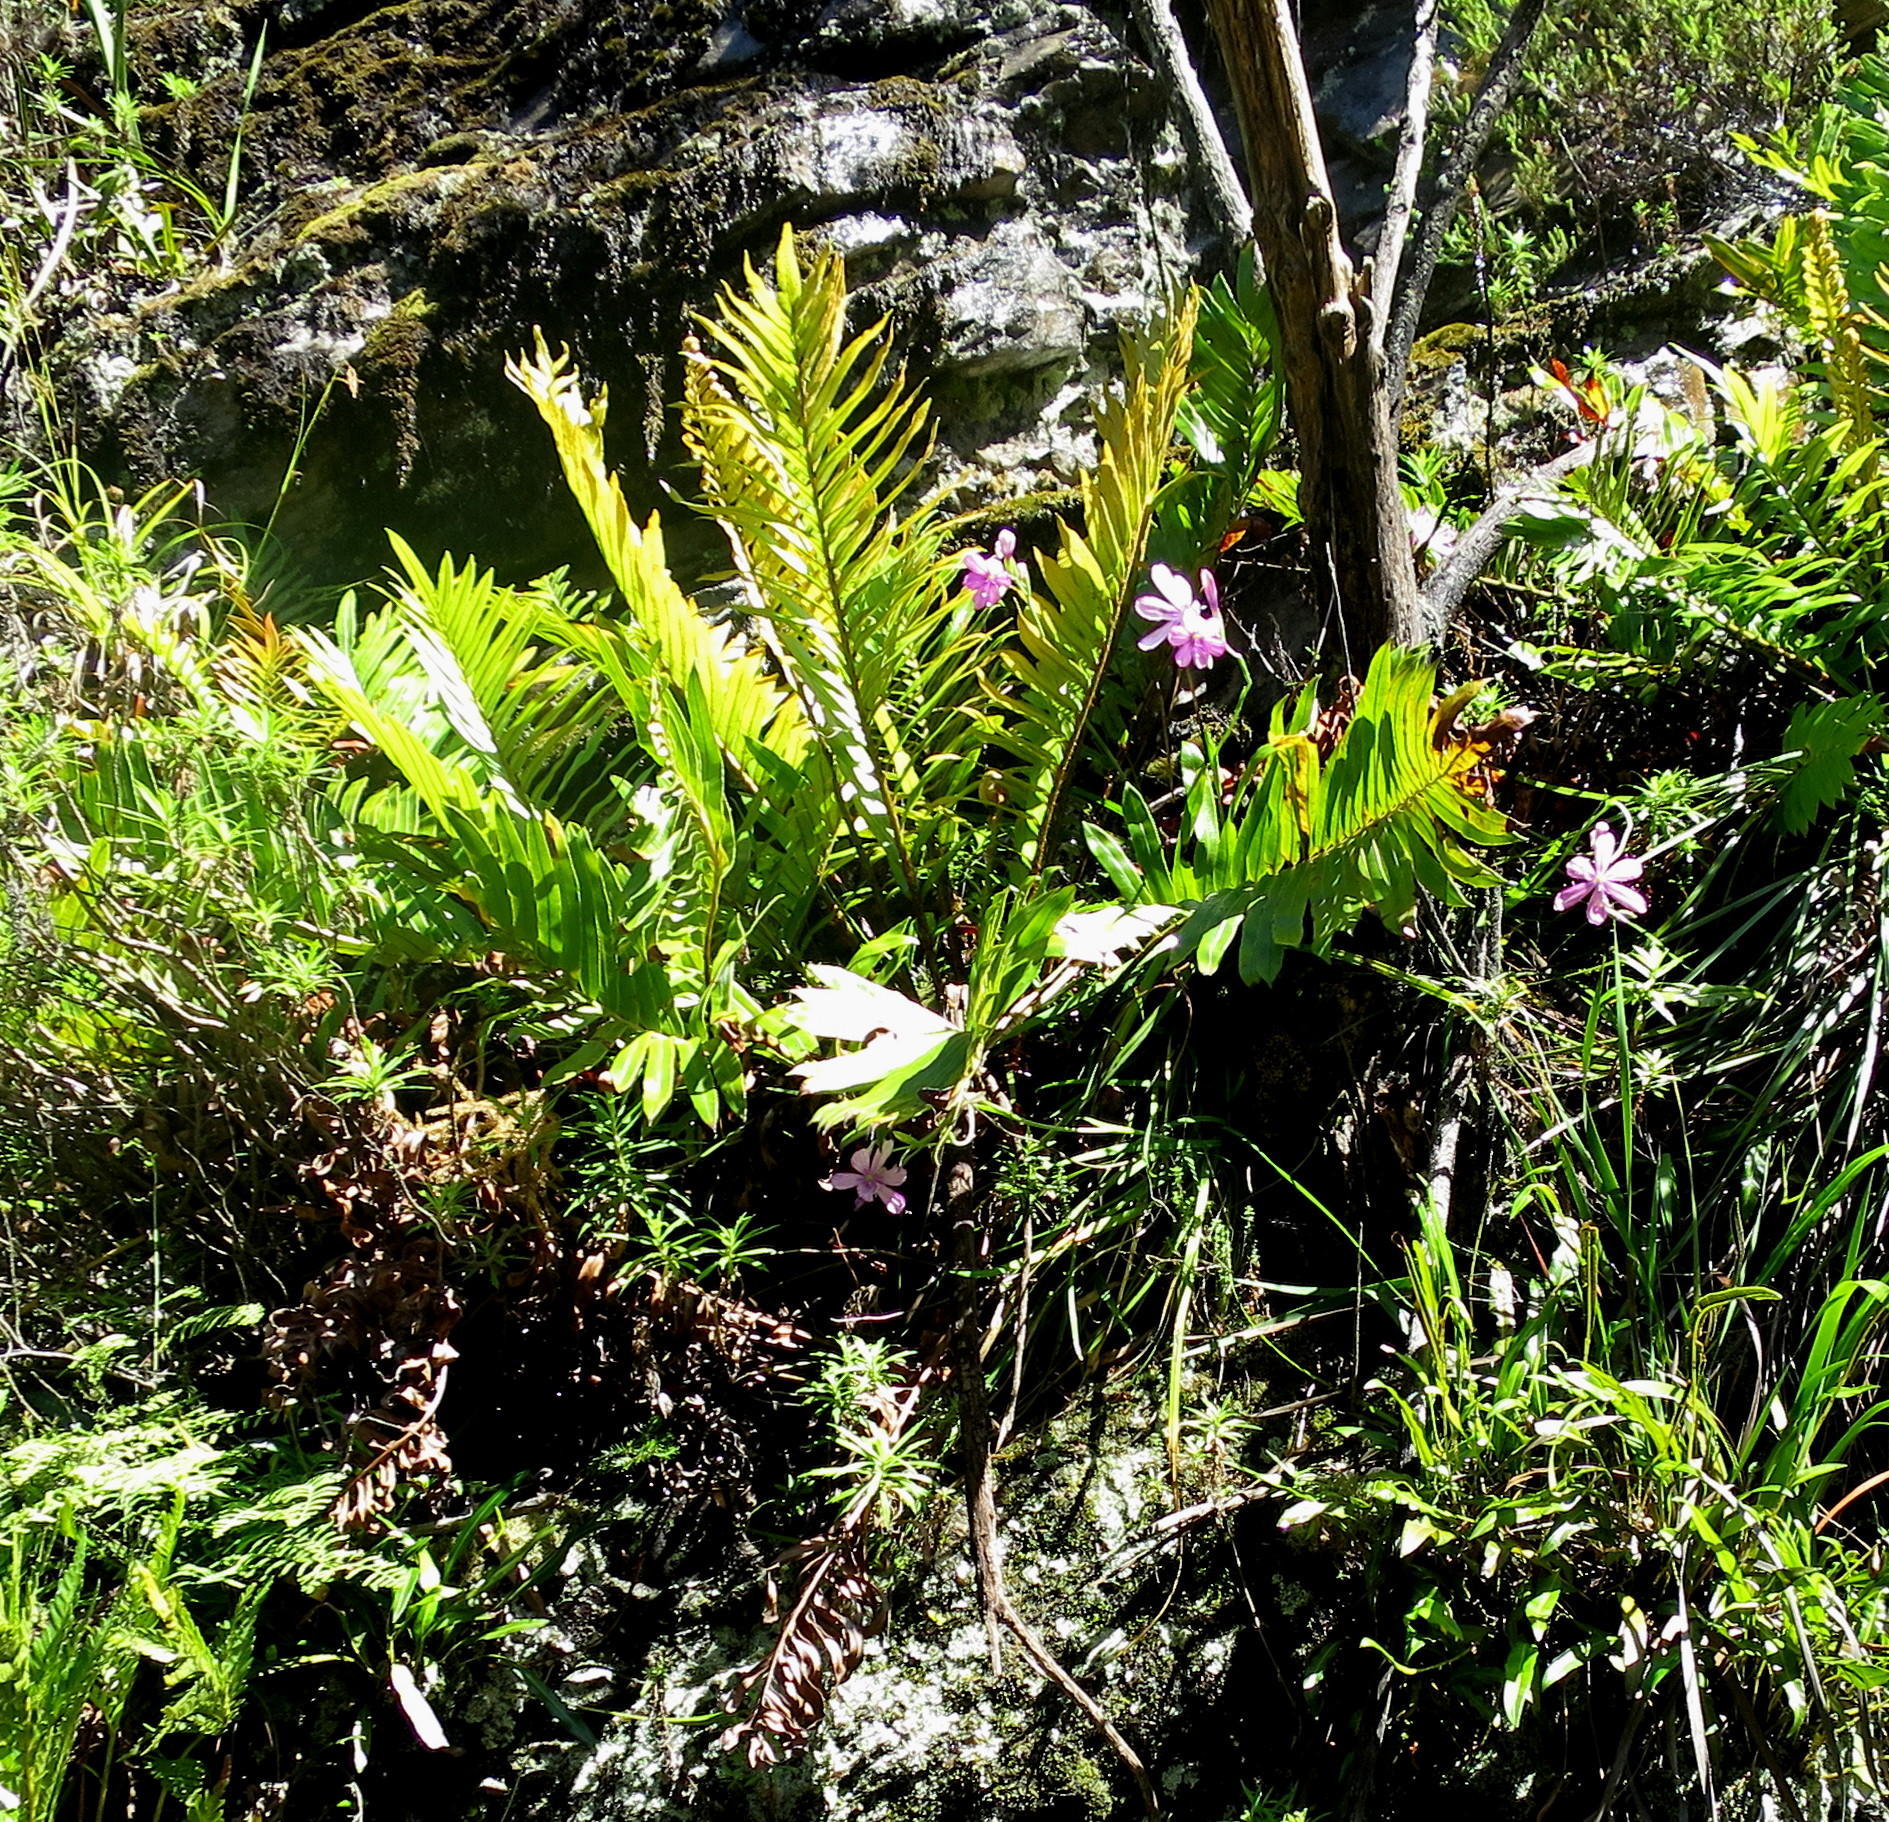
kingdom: Plantae
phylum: Tracheophyta
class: Liliopsida
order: Asparagales
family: Iridaceae
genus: Geissorhiza
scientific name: Geissorhiza outeniquensis
